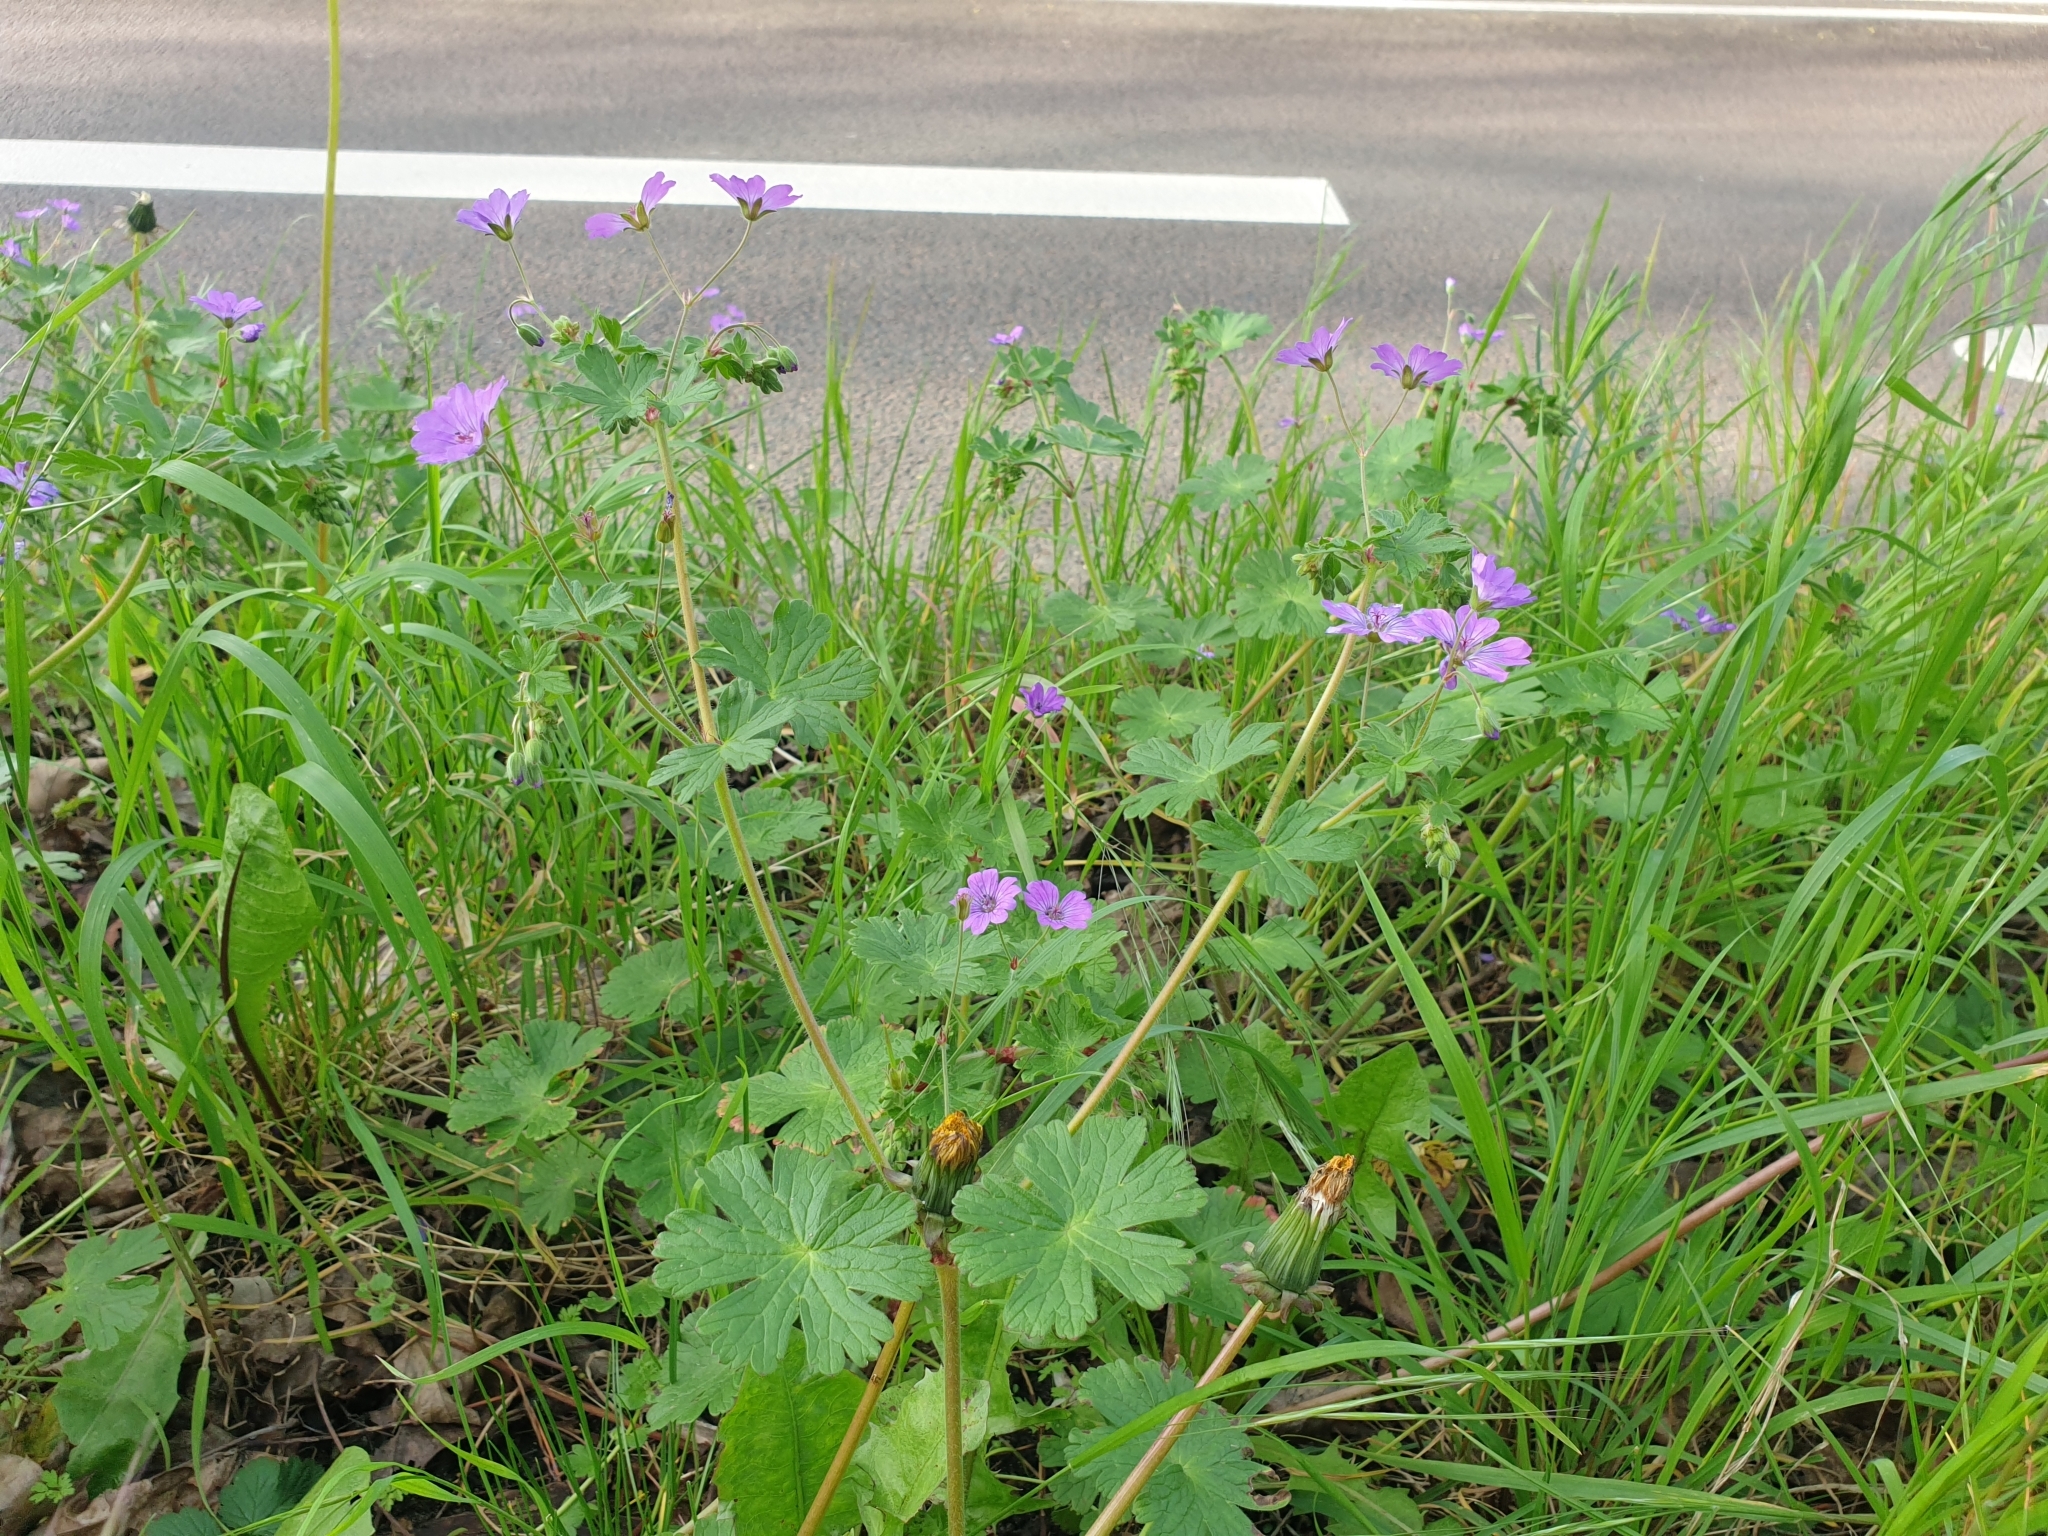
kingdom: Plantae
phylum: Tracheophyta
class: Magnoliopsida
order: Geraniales
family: Geraniaceae
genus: Geranium
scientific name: Geranium pyrenaicum
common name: Hedgerow crane's-bill
